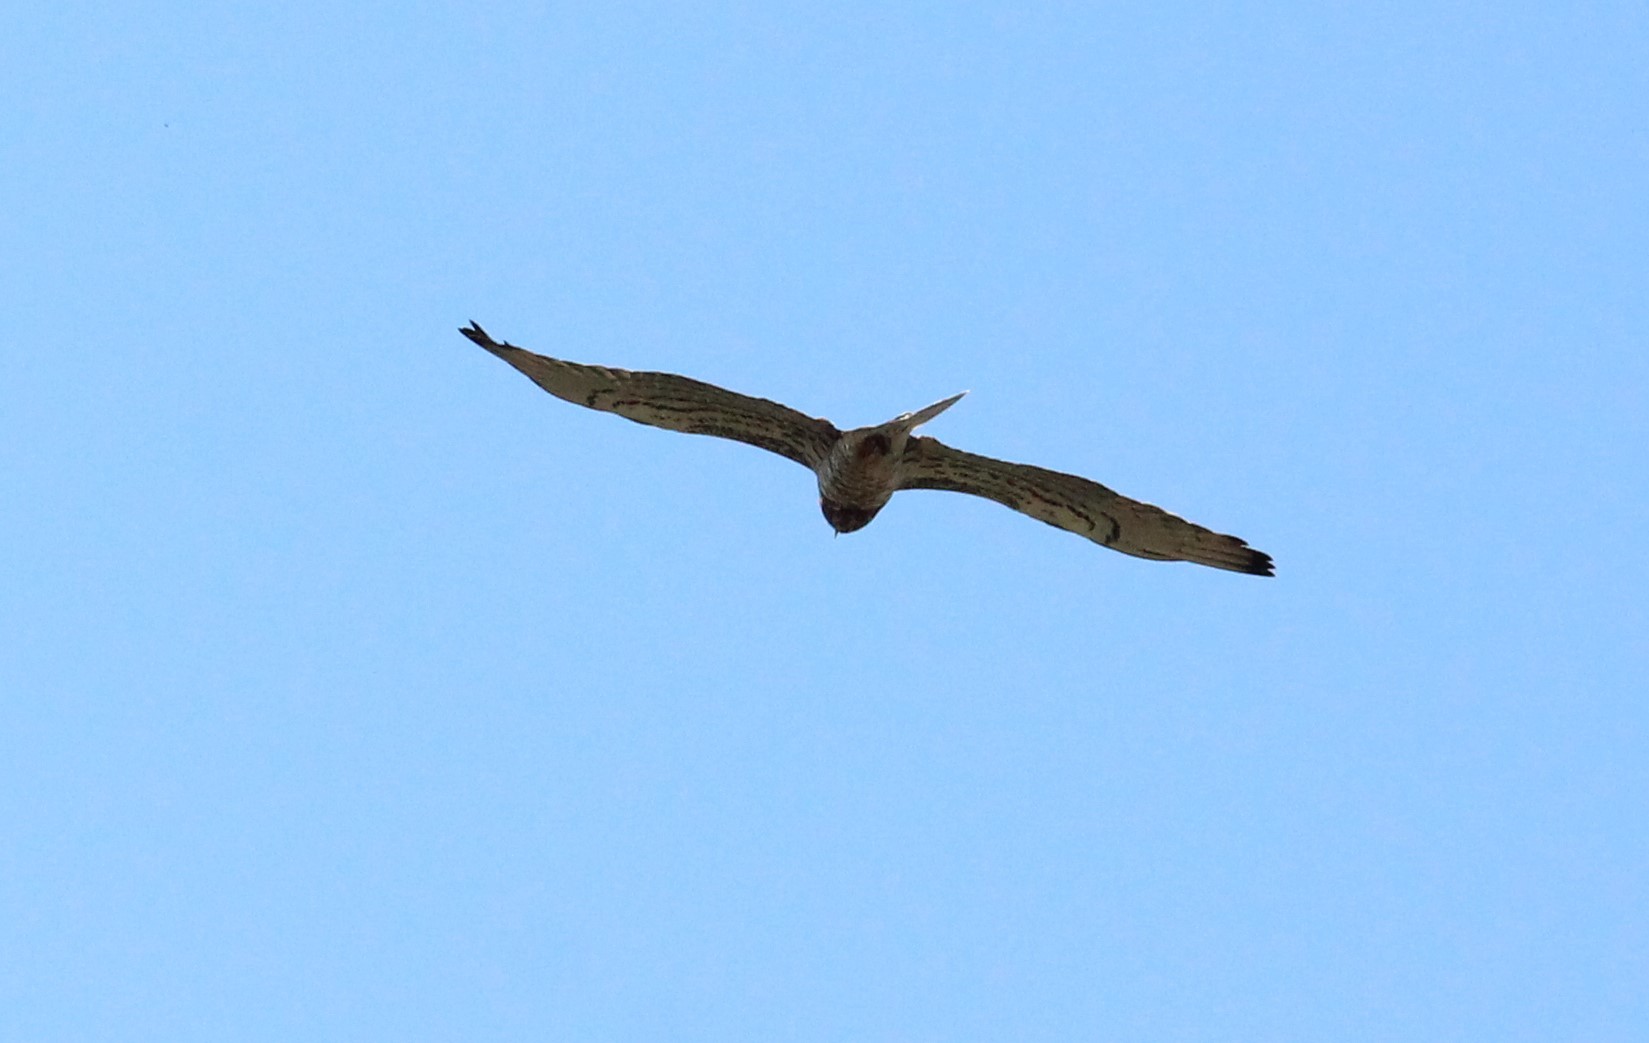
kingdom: Animalia
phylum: Chordata
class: Aves
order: Accipitriformes
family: Accipitridae
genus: Circaetus
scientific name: Circaetus gallicus
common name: Short-toed snake eagle
